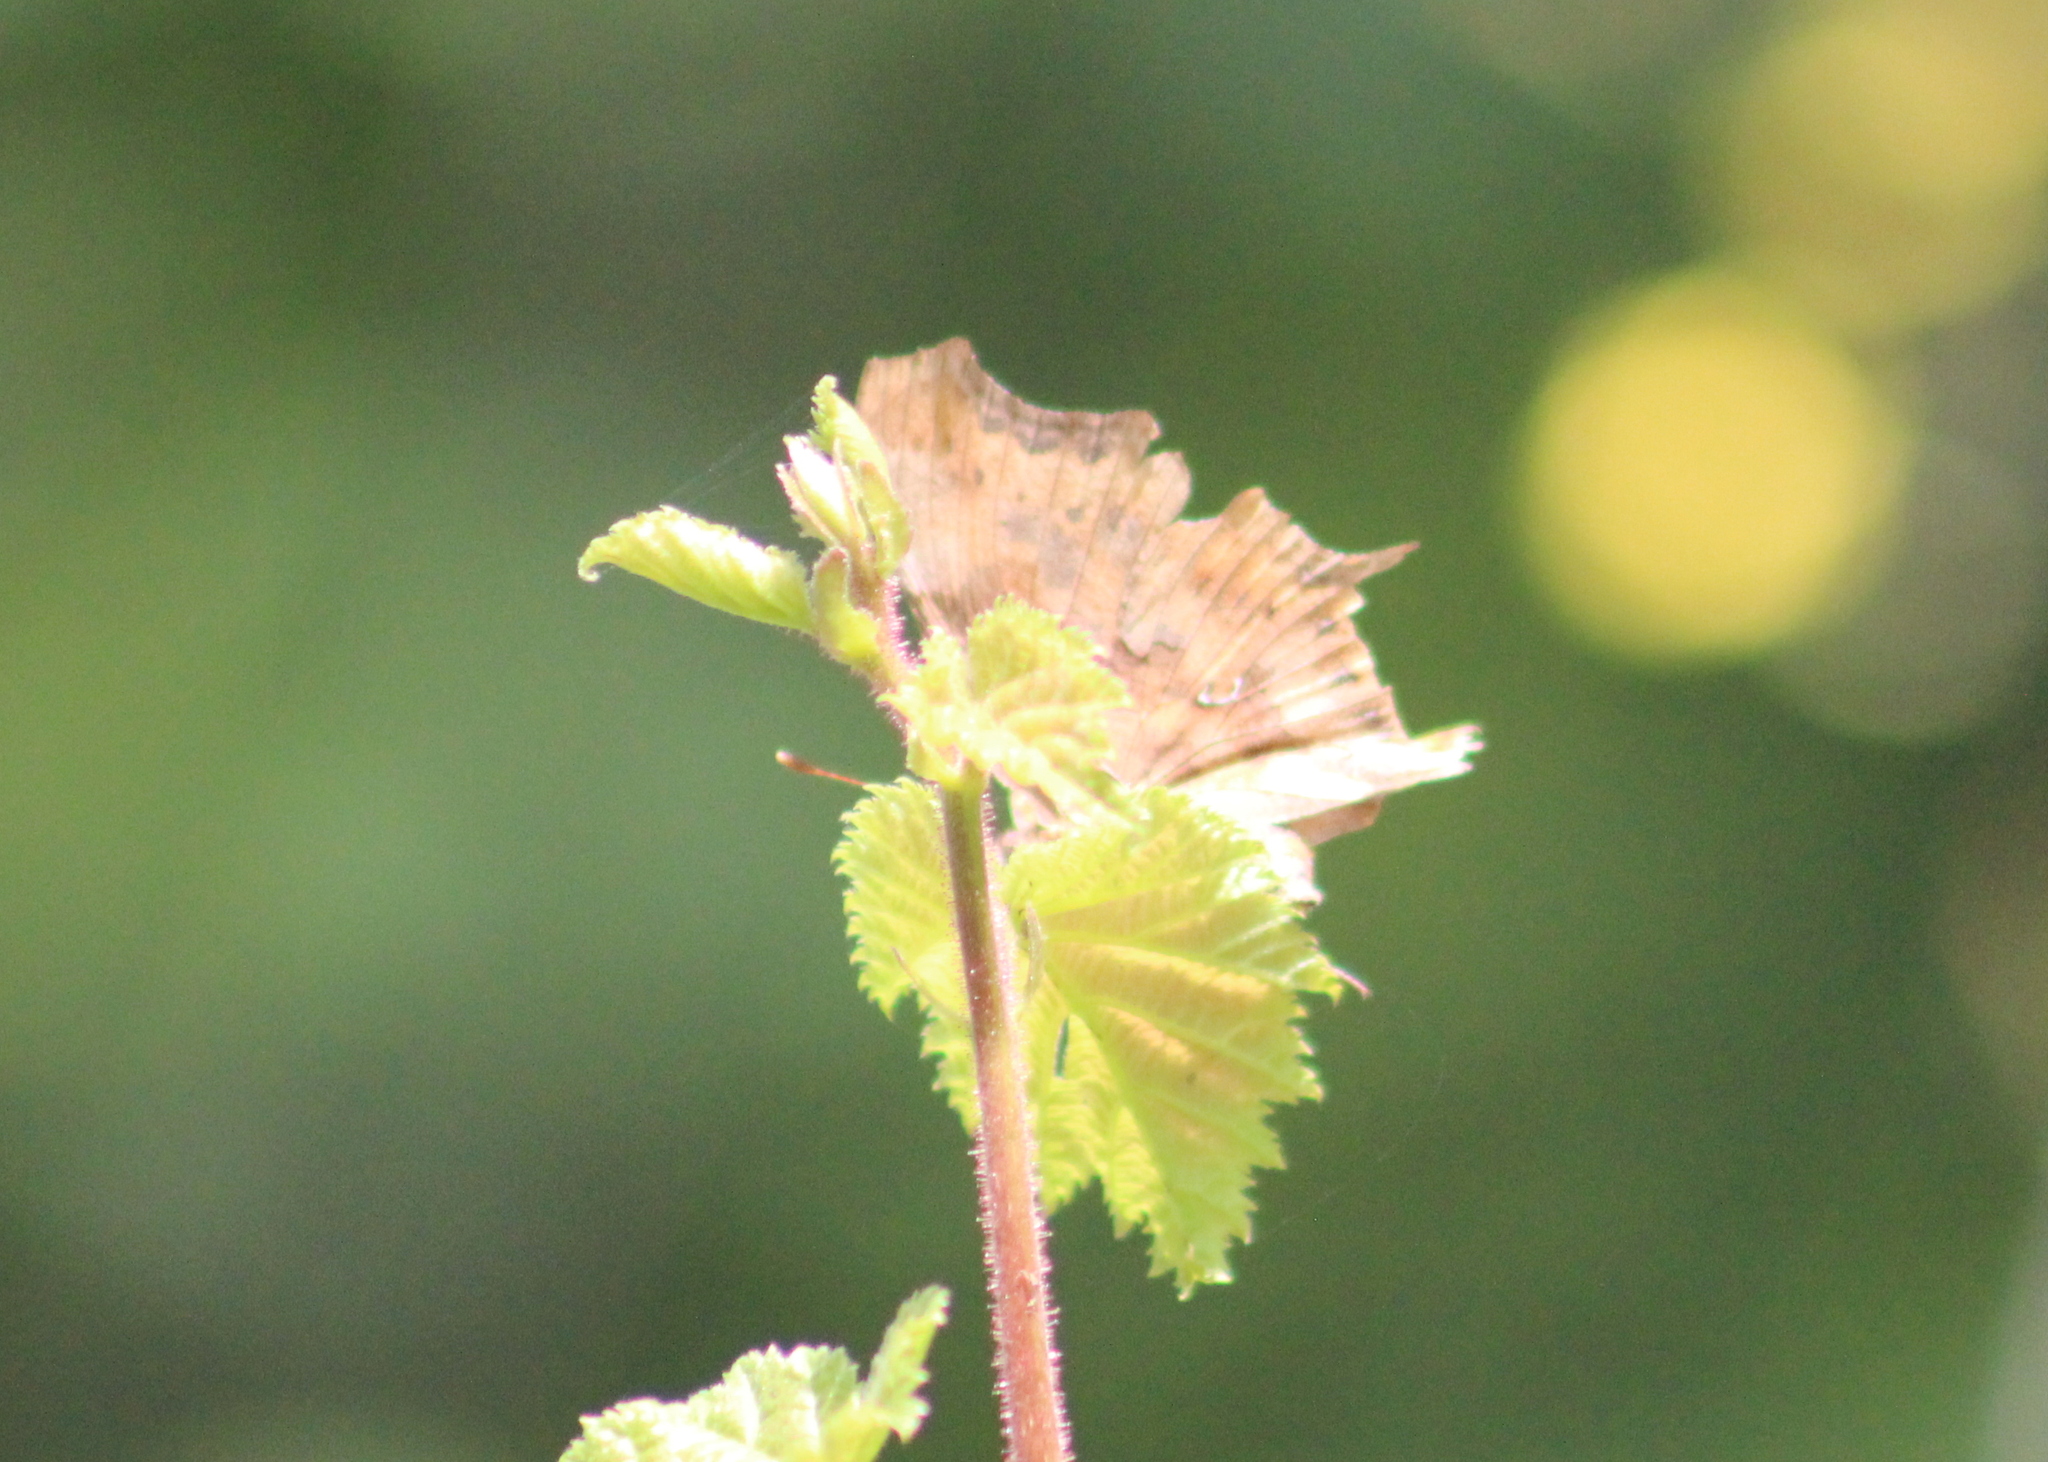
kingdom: Animalia
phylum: Arthropoda
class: Insecta
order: Lepidoptera
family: Nymphalidae
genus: Polygonia
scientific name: Polygonia c-album
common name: Comma
